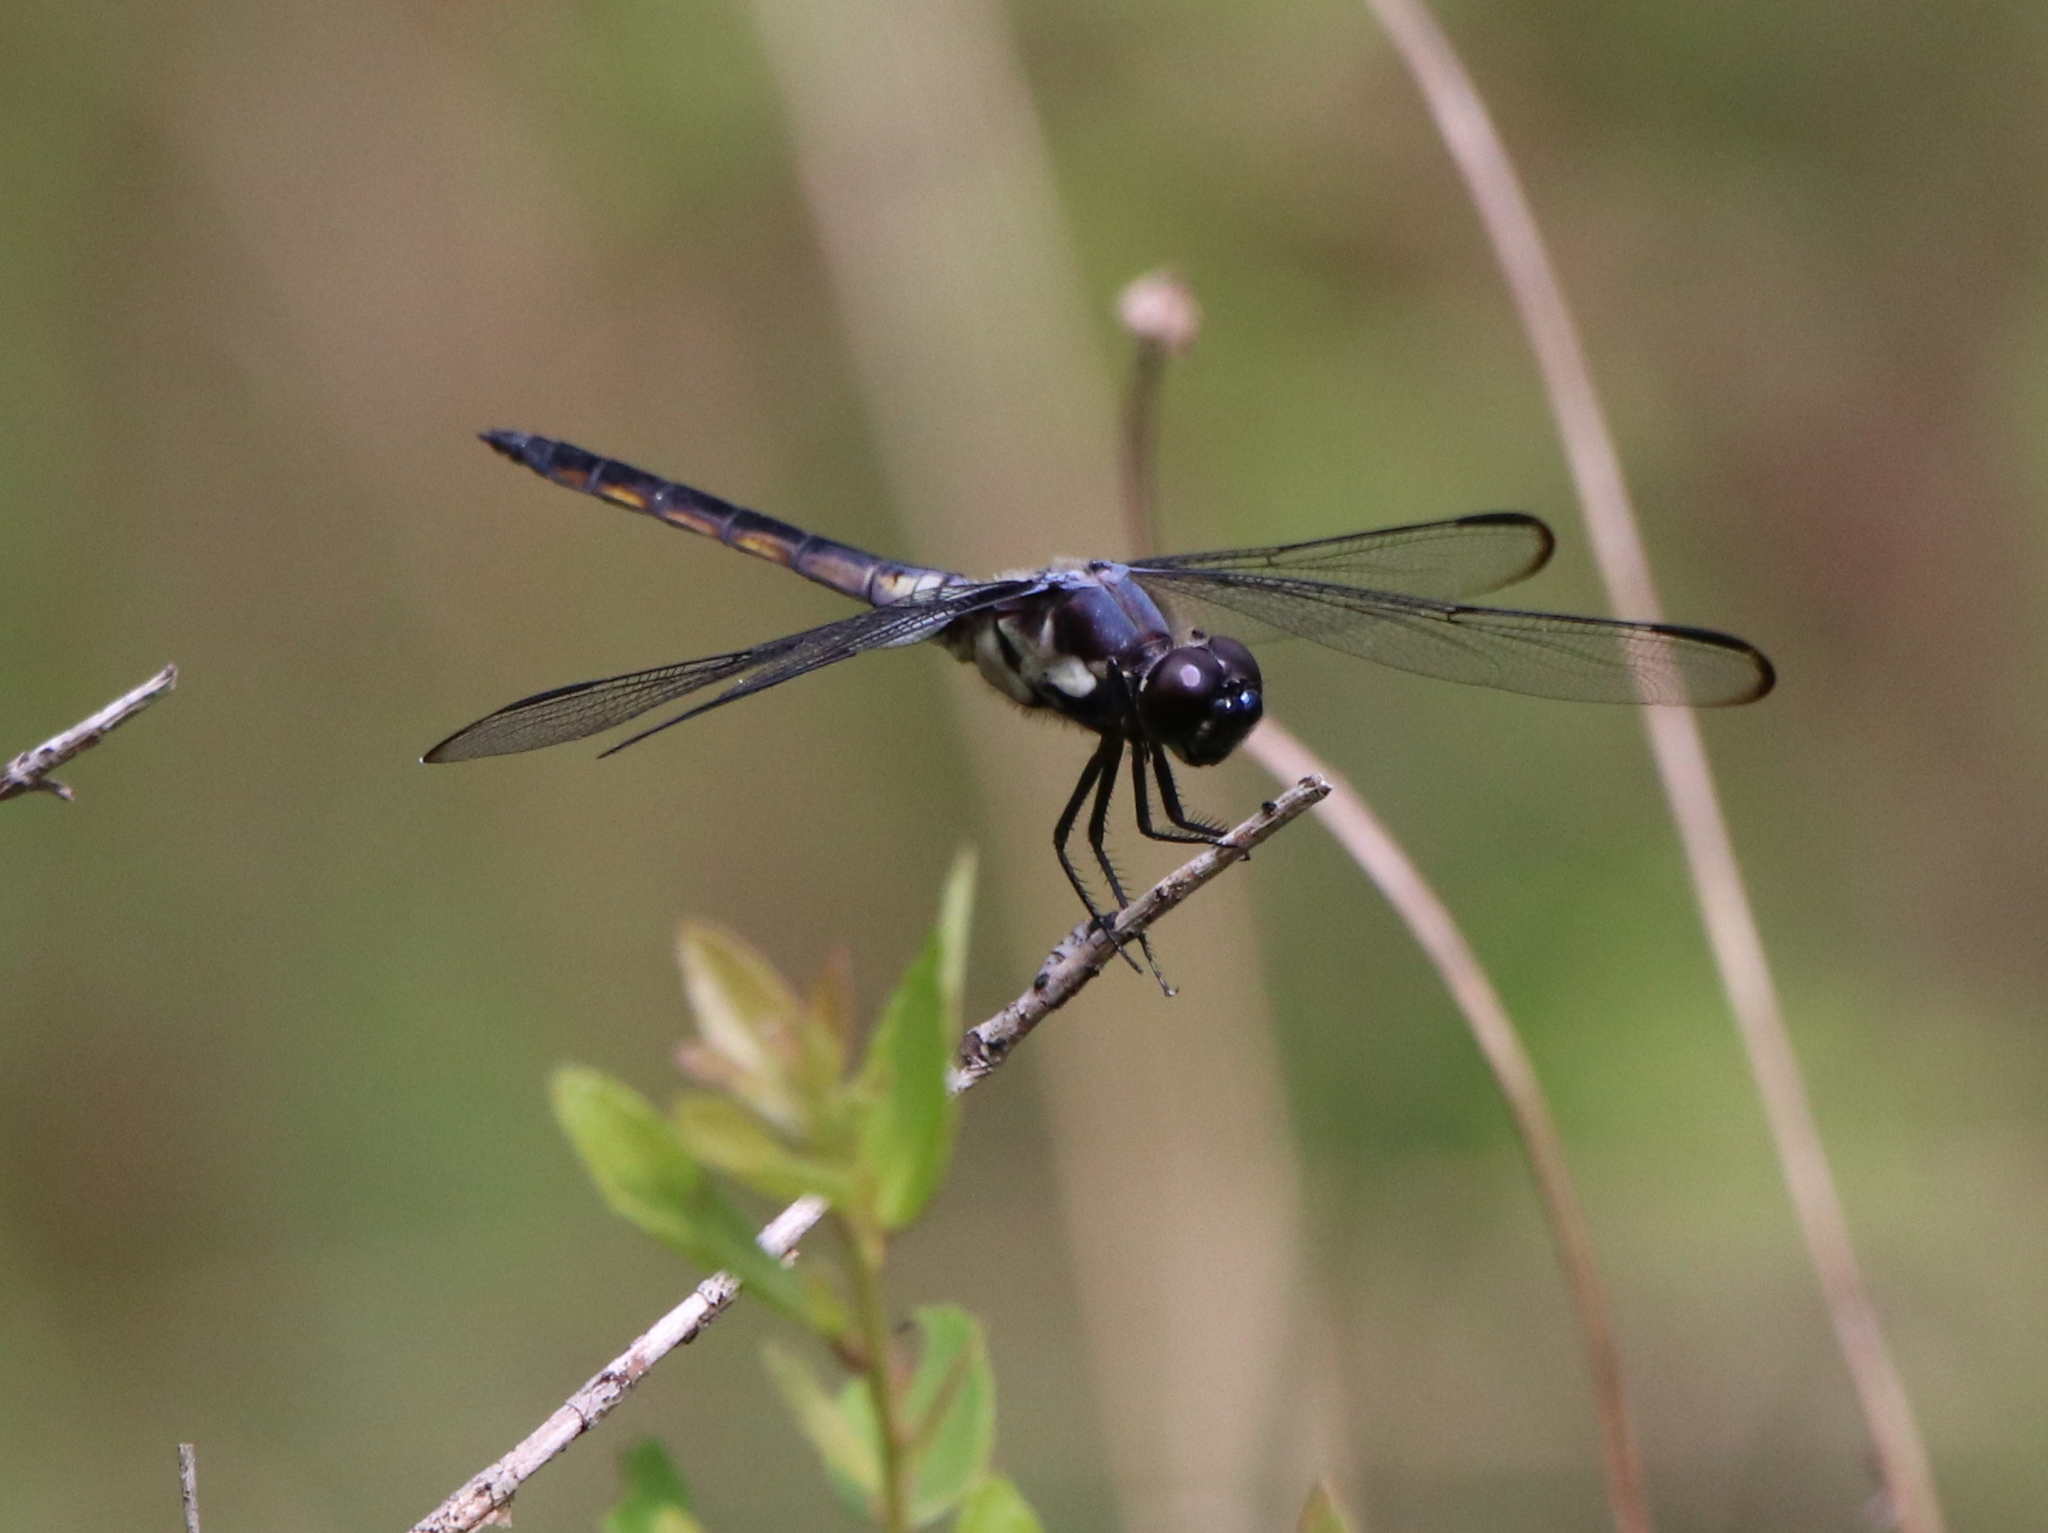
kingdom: Animalia
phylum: Arthropoda
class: Insecta
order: Odonata
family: Libellulidae
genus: Libellula
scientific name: Libellula incesta
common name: Slaty skimmer
